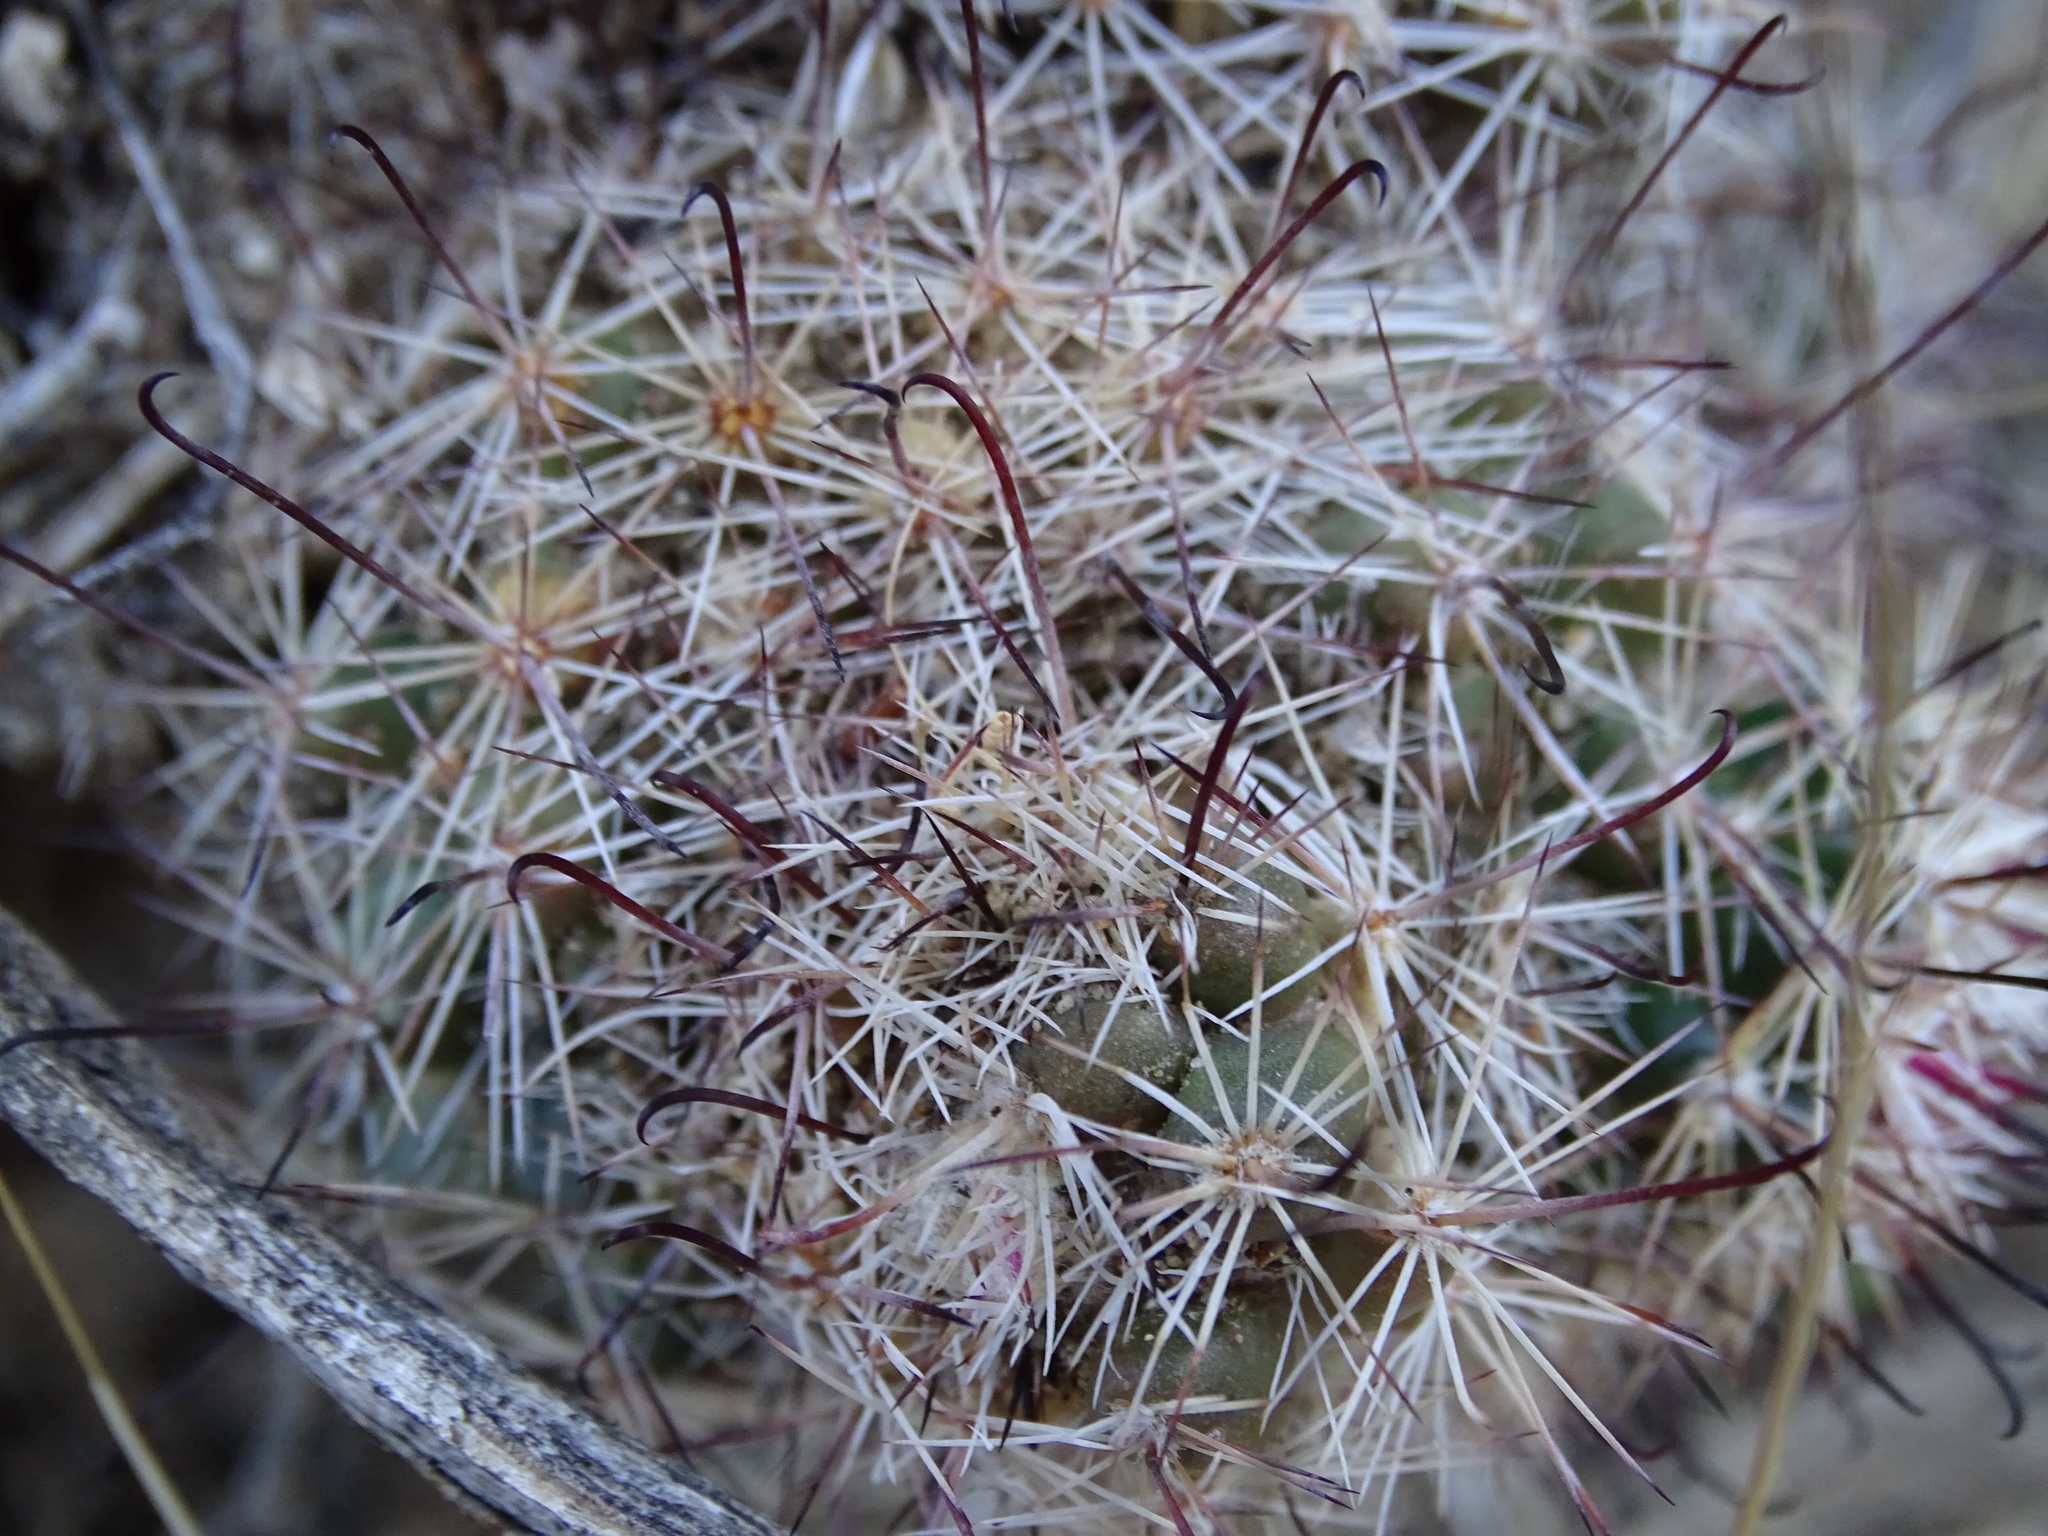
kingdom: Plantae
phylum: Tracheophyta
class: Magnoliopsida
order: Caryophyllales
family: Cactaceae
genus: Cochemiea
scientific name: Cochemiea dioica
